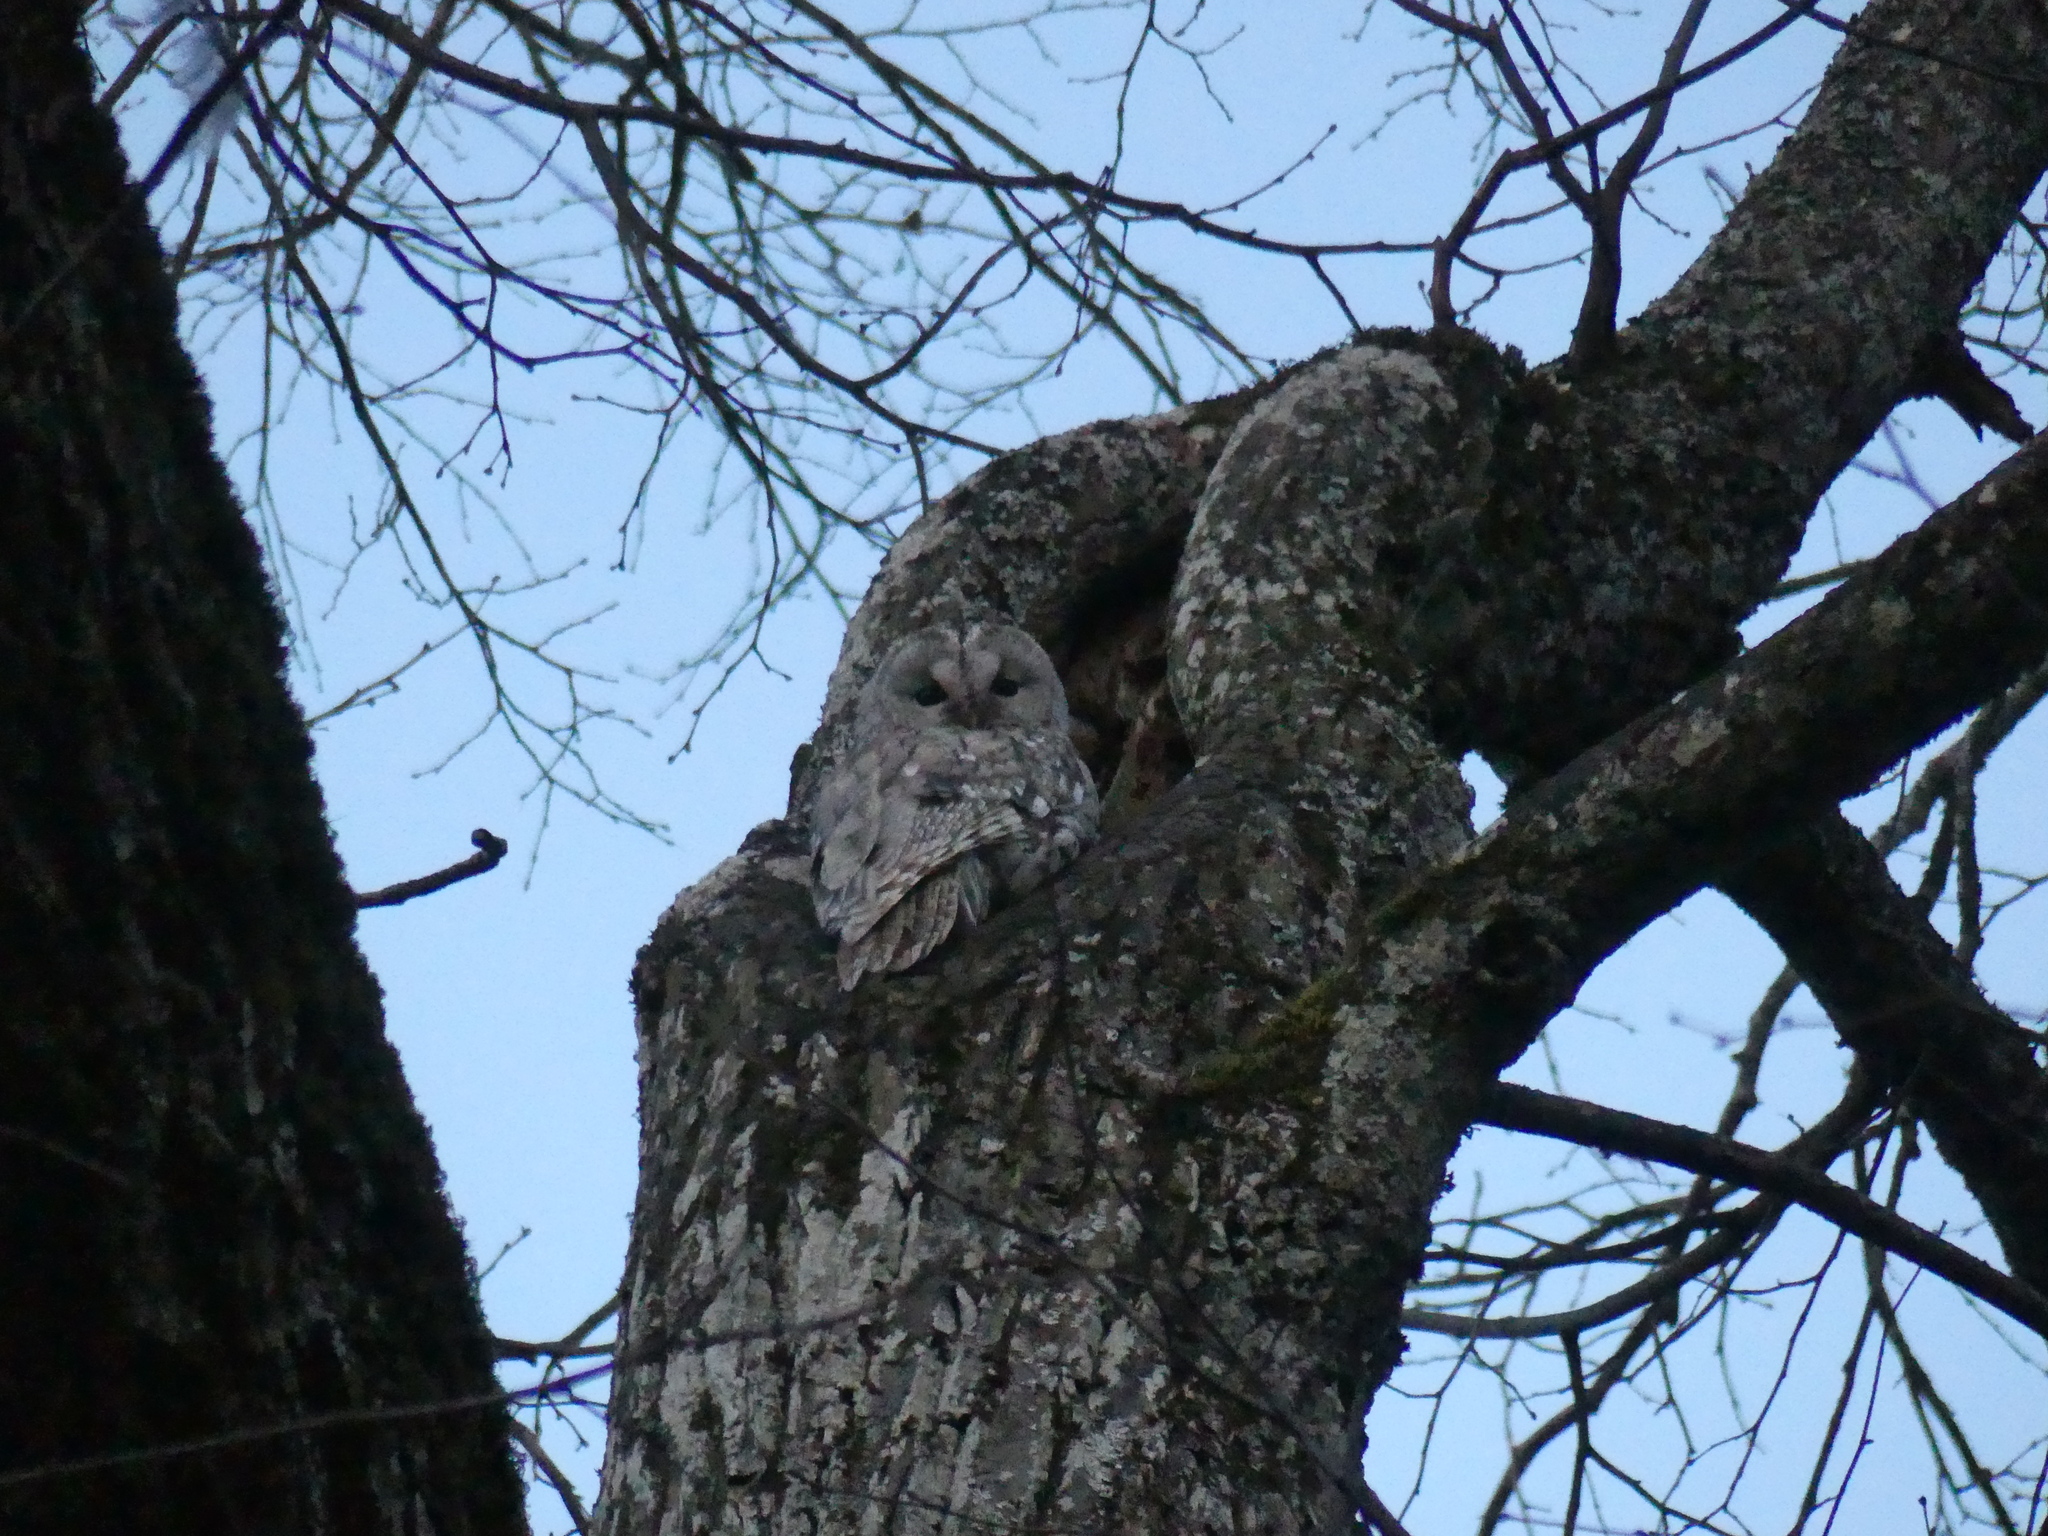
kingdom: Animalia
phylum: Chordata
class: Aves
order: Strigiformes
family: Strigidae
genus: Strix
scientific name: Strix aluco
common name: Tawny owl
